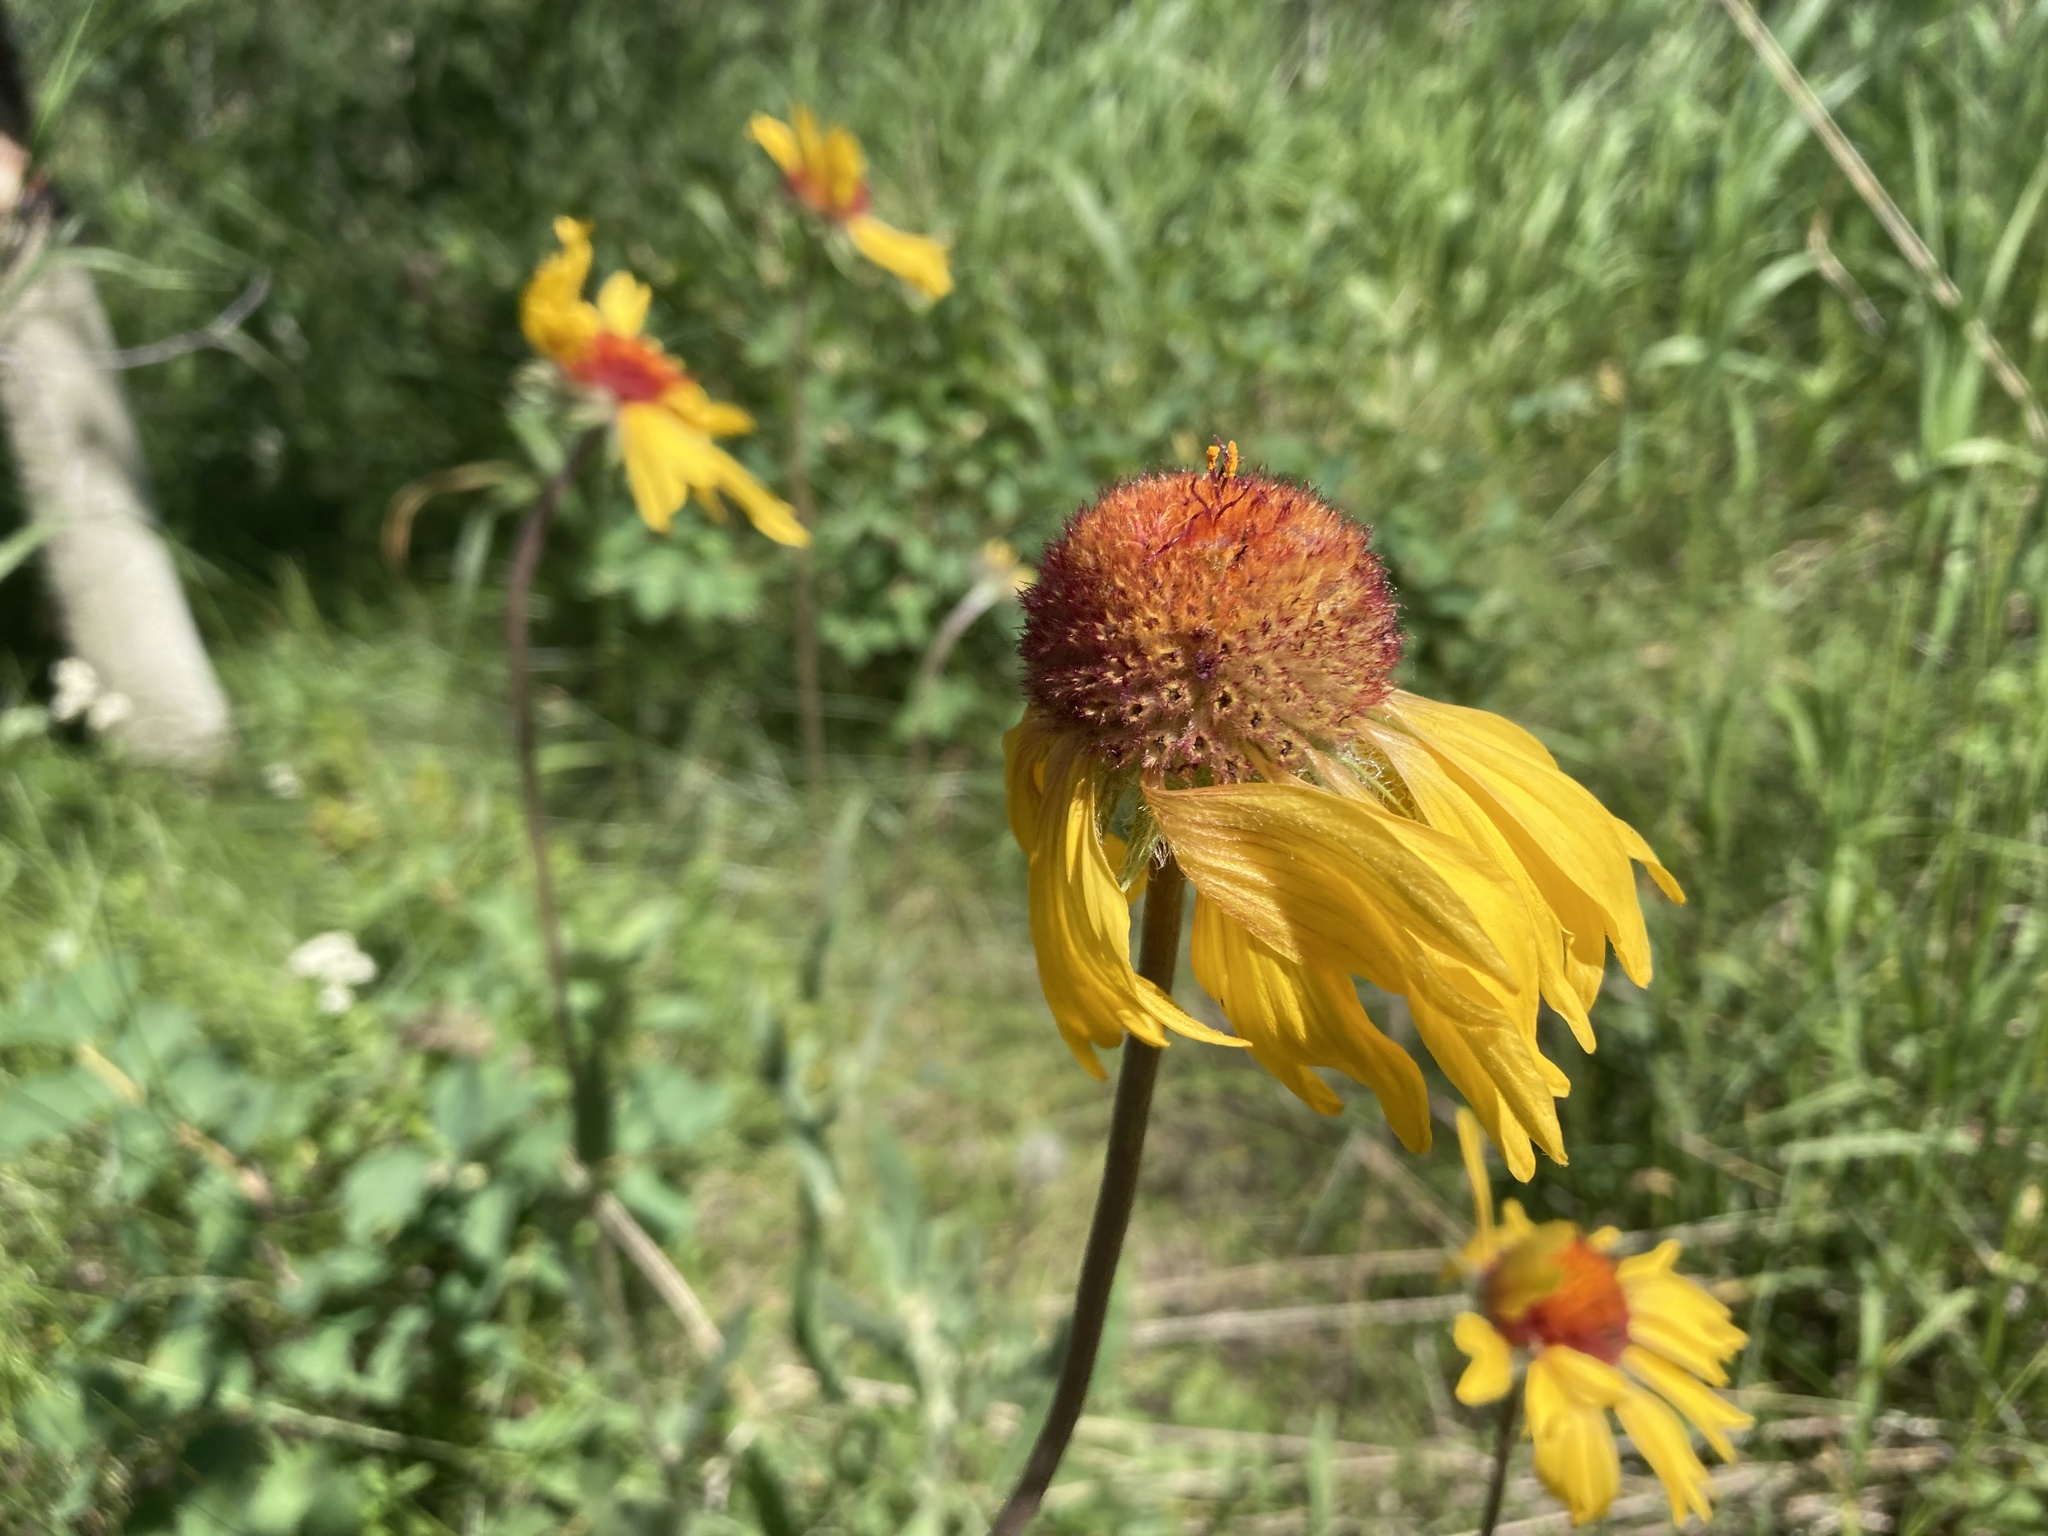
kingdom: Plantae
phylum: Tracheophyta
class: Magnoliopsida
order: Asterales
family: Asteraceae
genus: Gaillardia
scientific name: Gaillardia aristata
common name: Blanket-flower
